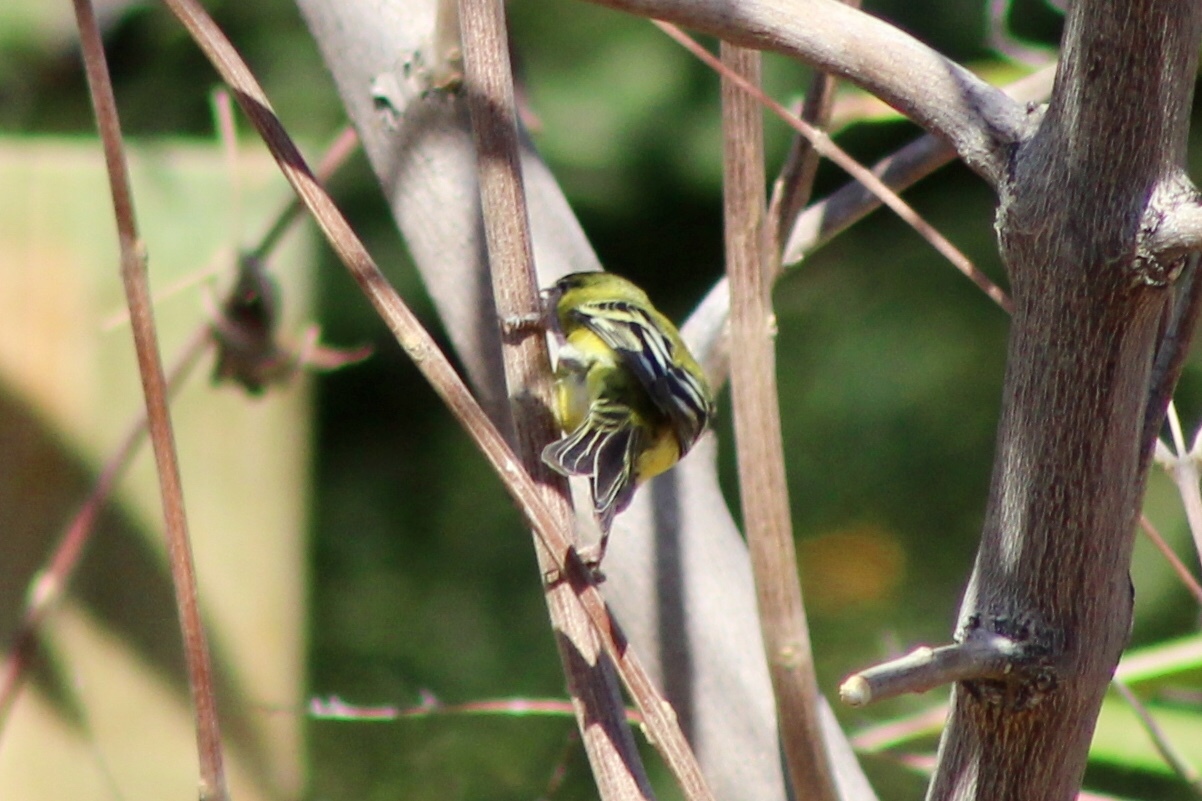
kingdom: Animalia
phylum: Chordata
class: Aves
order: Passeriformes
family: Fringillidae
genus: Spinus
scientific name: Spinus psaltria
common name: Lesser goldfinch
